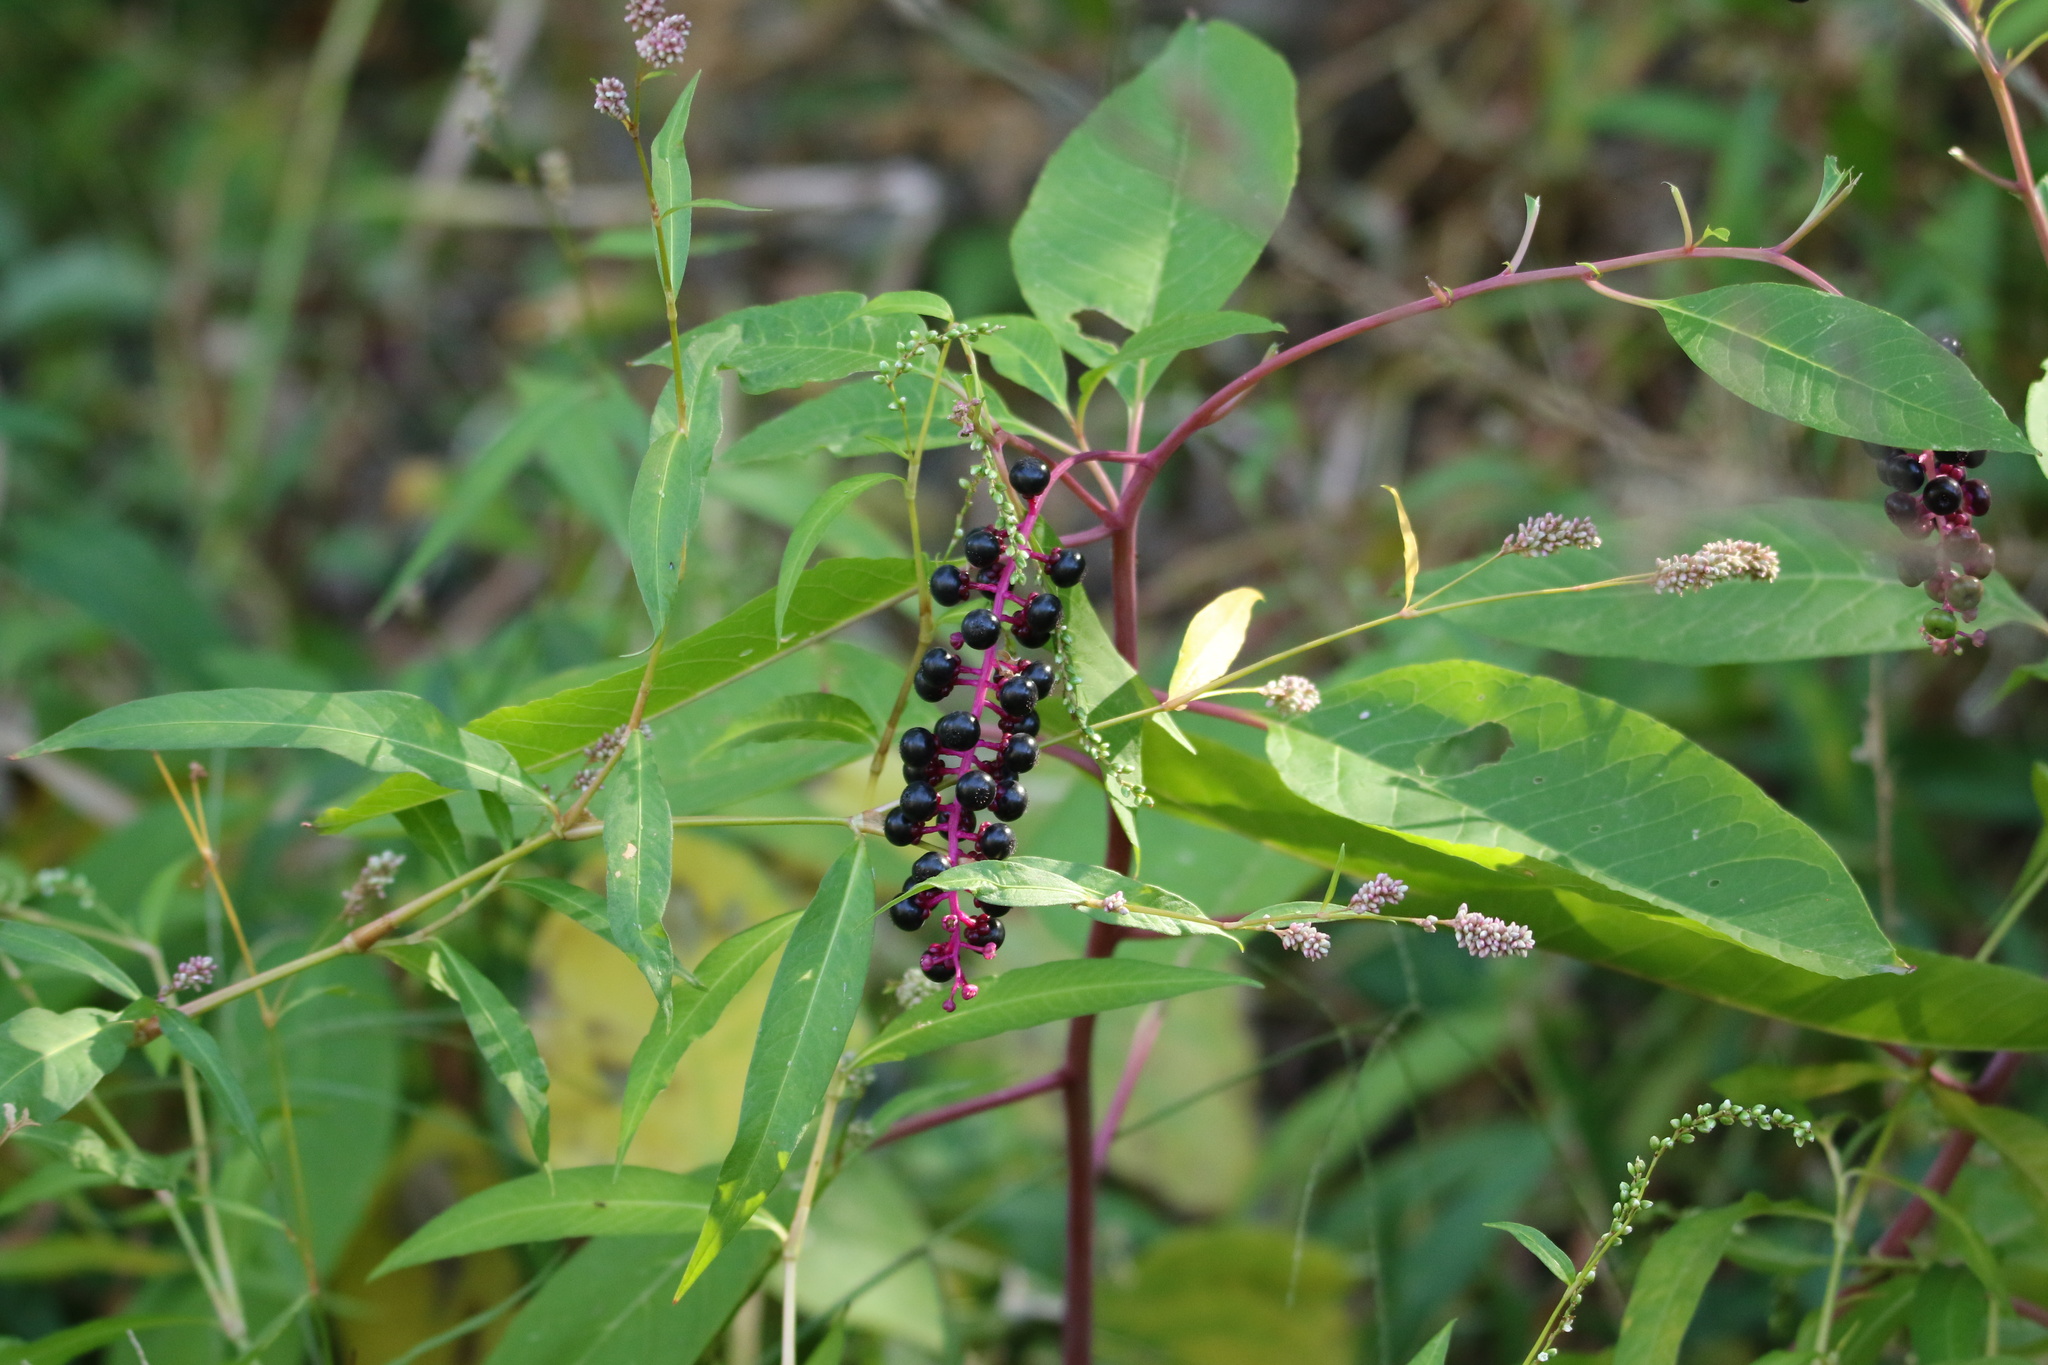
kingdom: Plantae
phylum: Tracheophyta
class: Magnoliopsida
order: Caryophyllales
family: Phytolaccaceae
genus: Phytolacca
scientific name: Phytolacca americana
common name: American pokeweed
